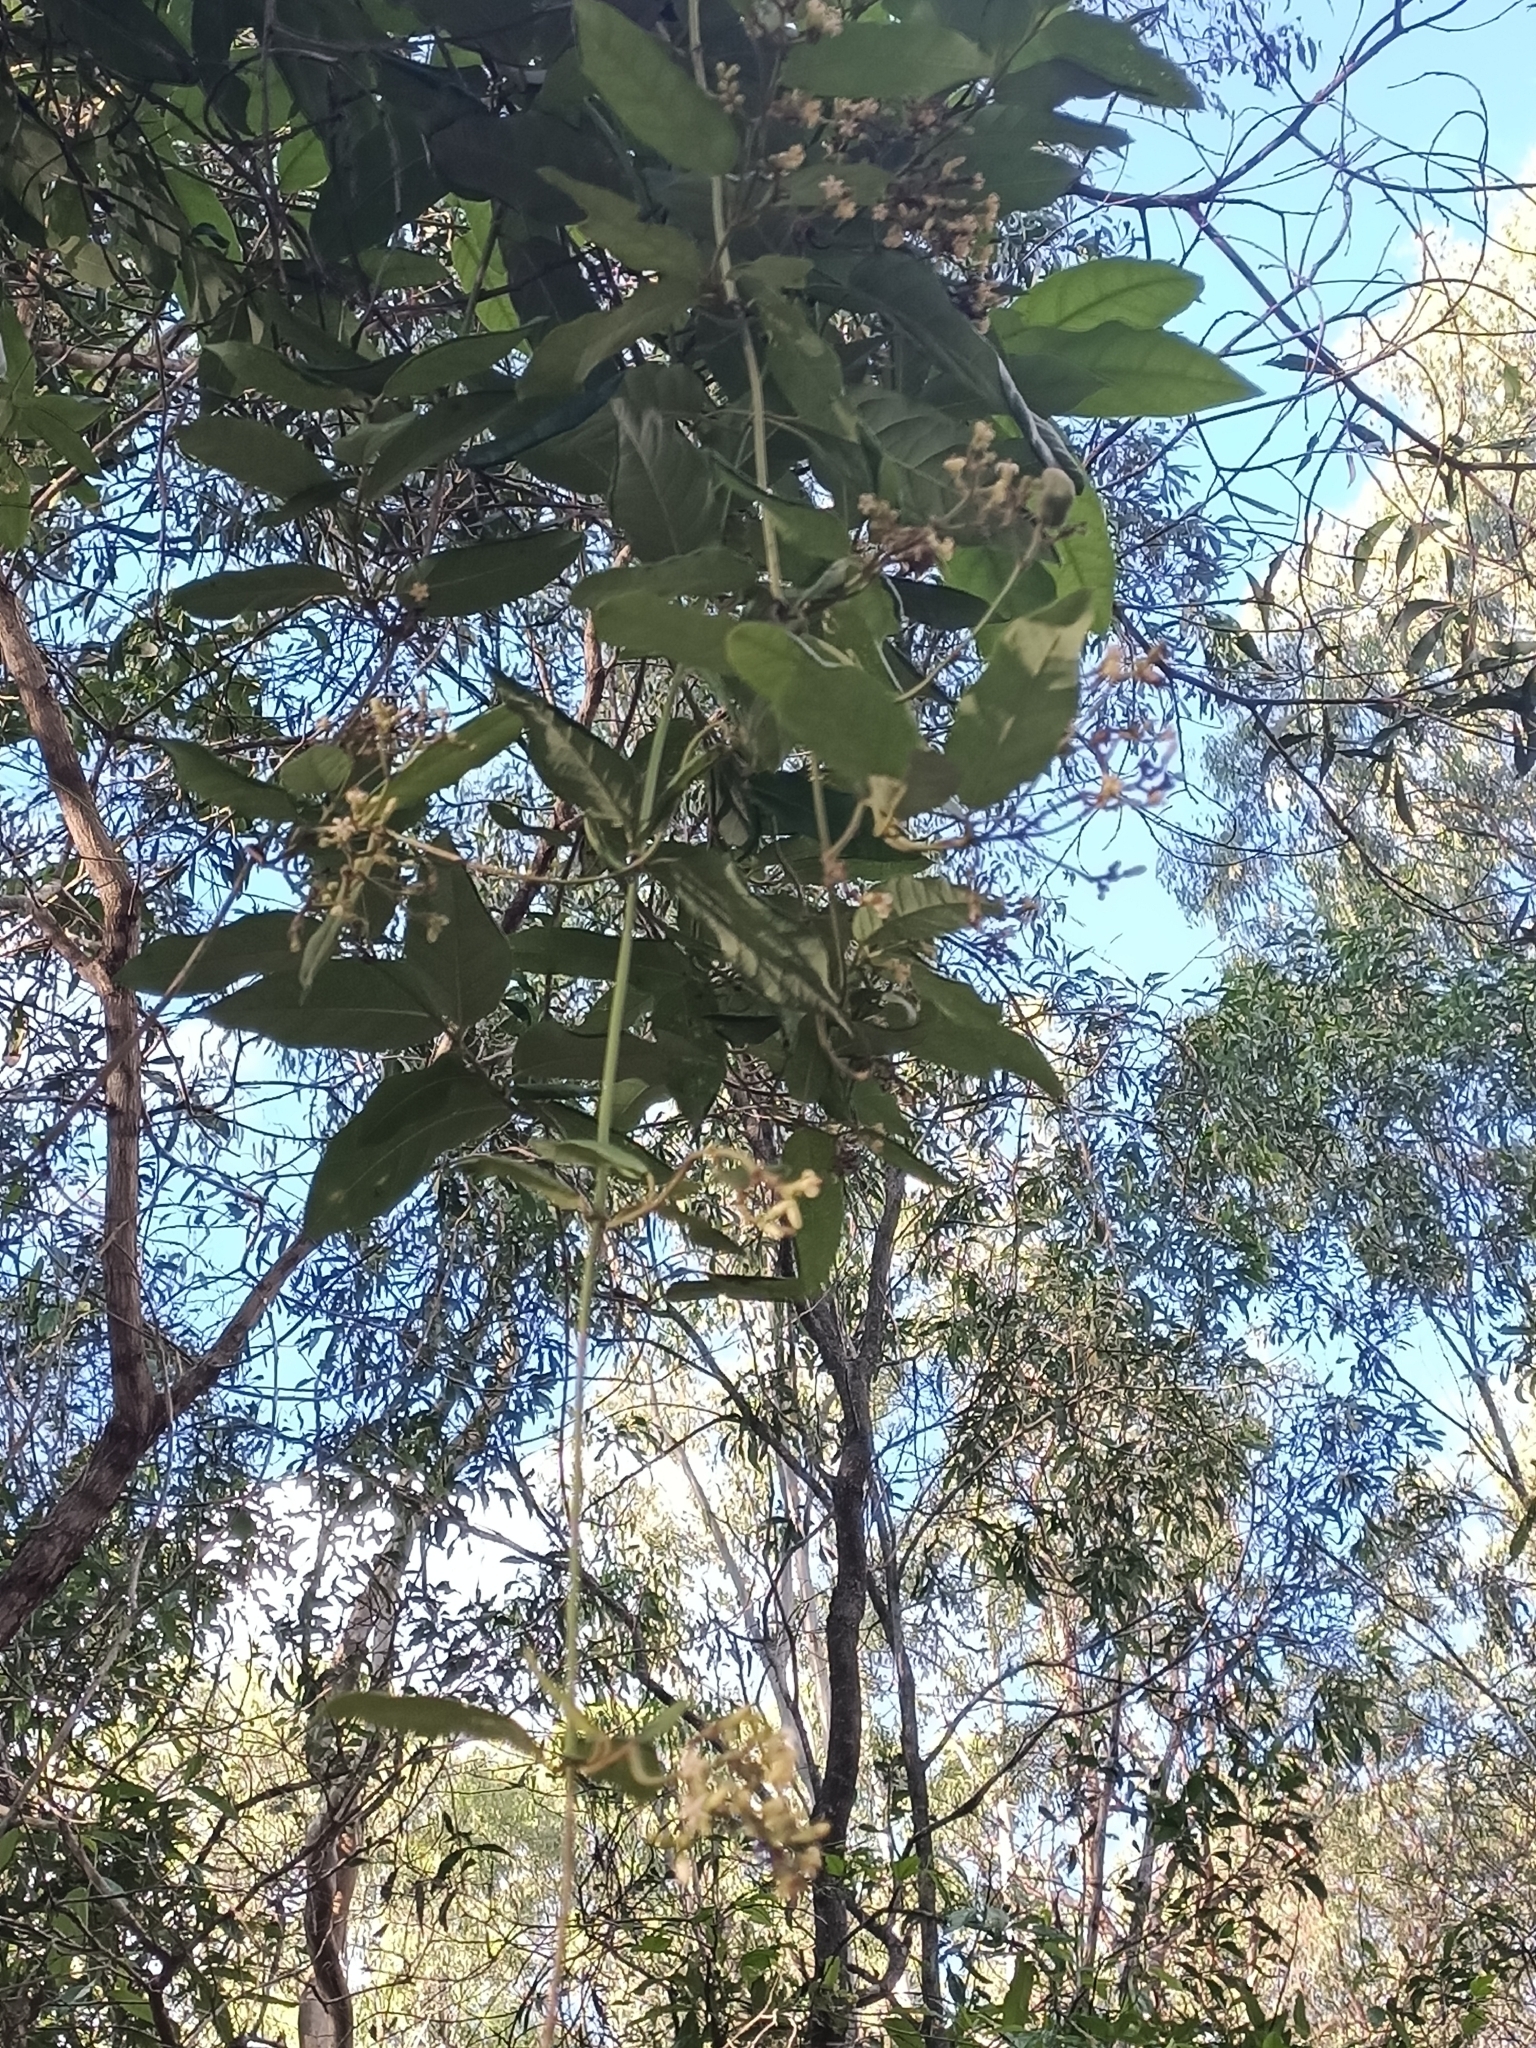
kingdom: Plantae
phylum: Tracheophyta
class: Magnoliopsida
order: Gentianales
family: Apocynaceae
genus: Parsonsia
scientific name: Parsonsia straminea
